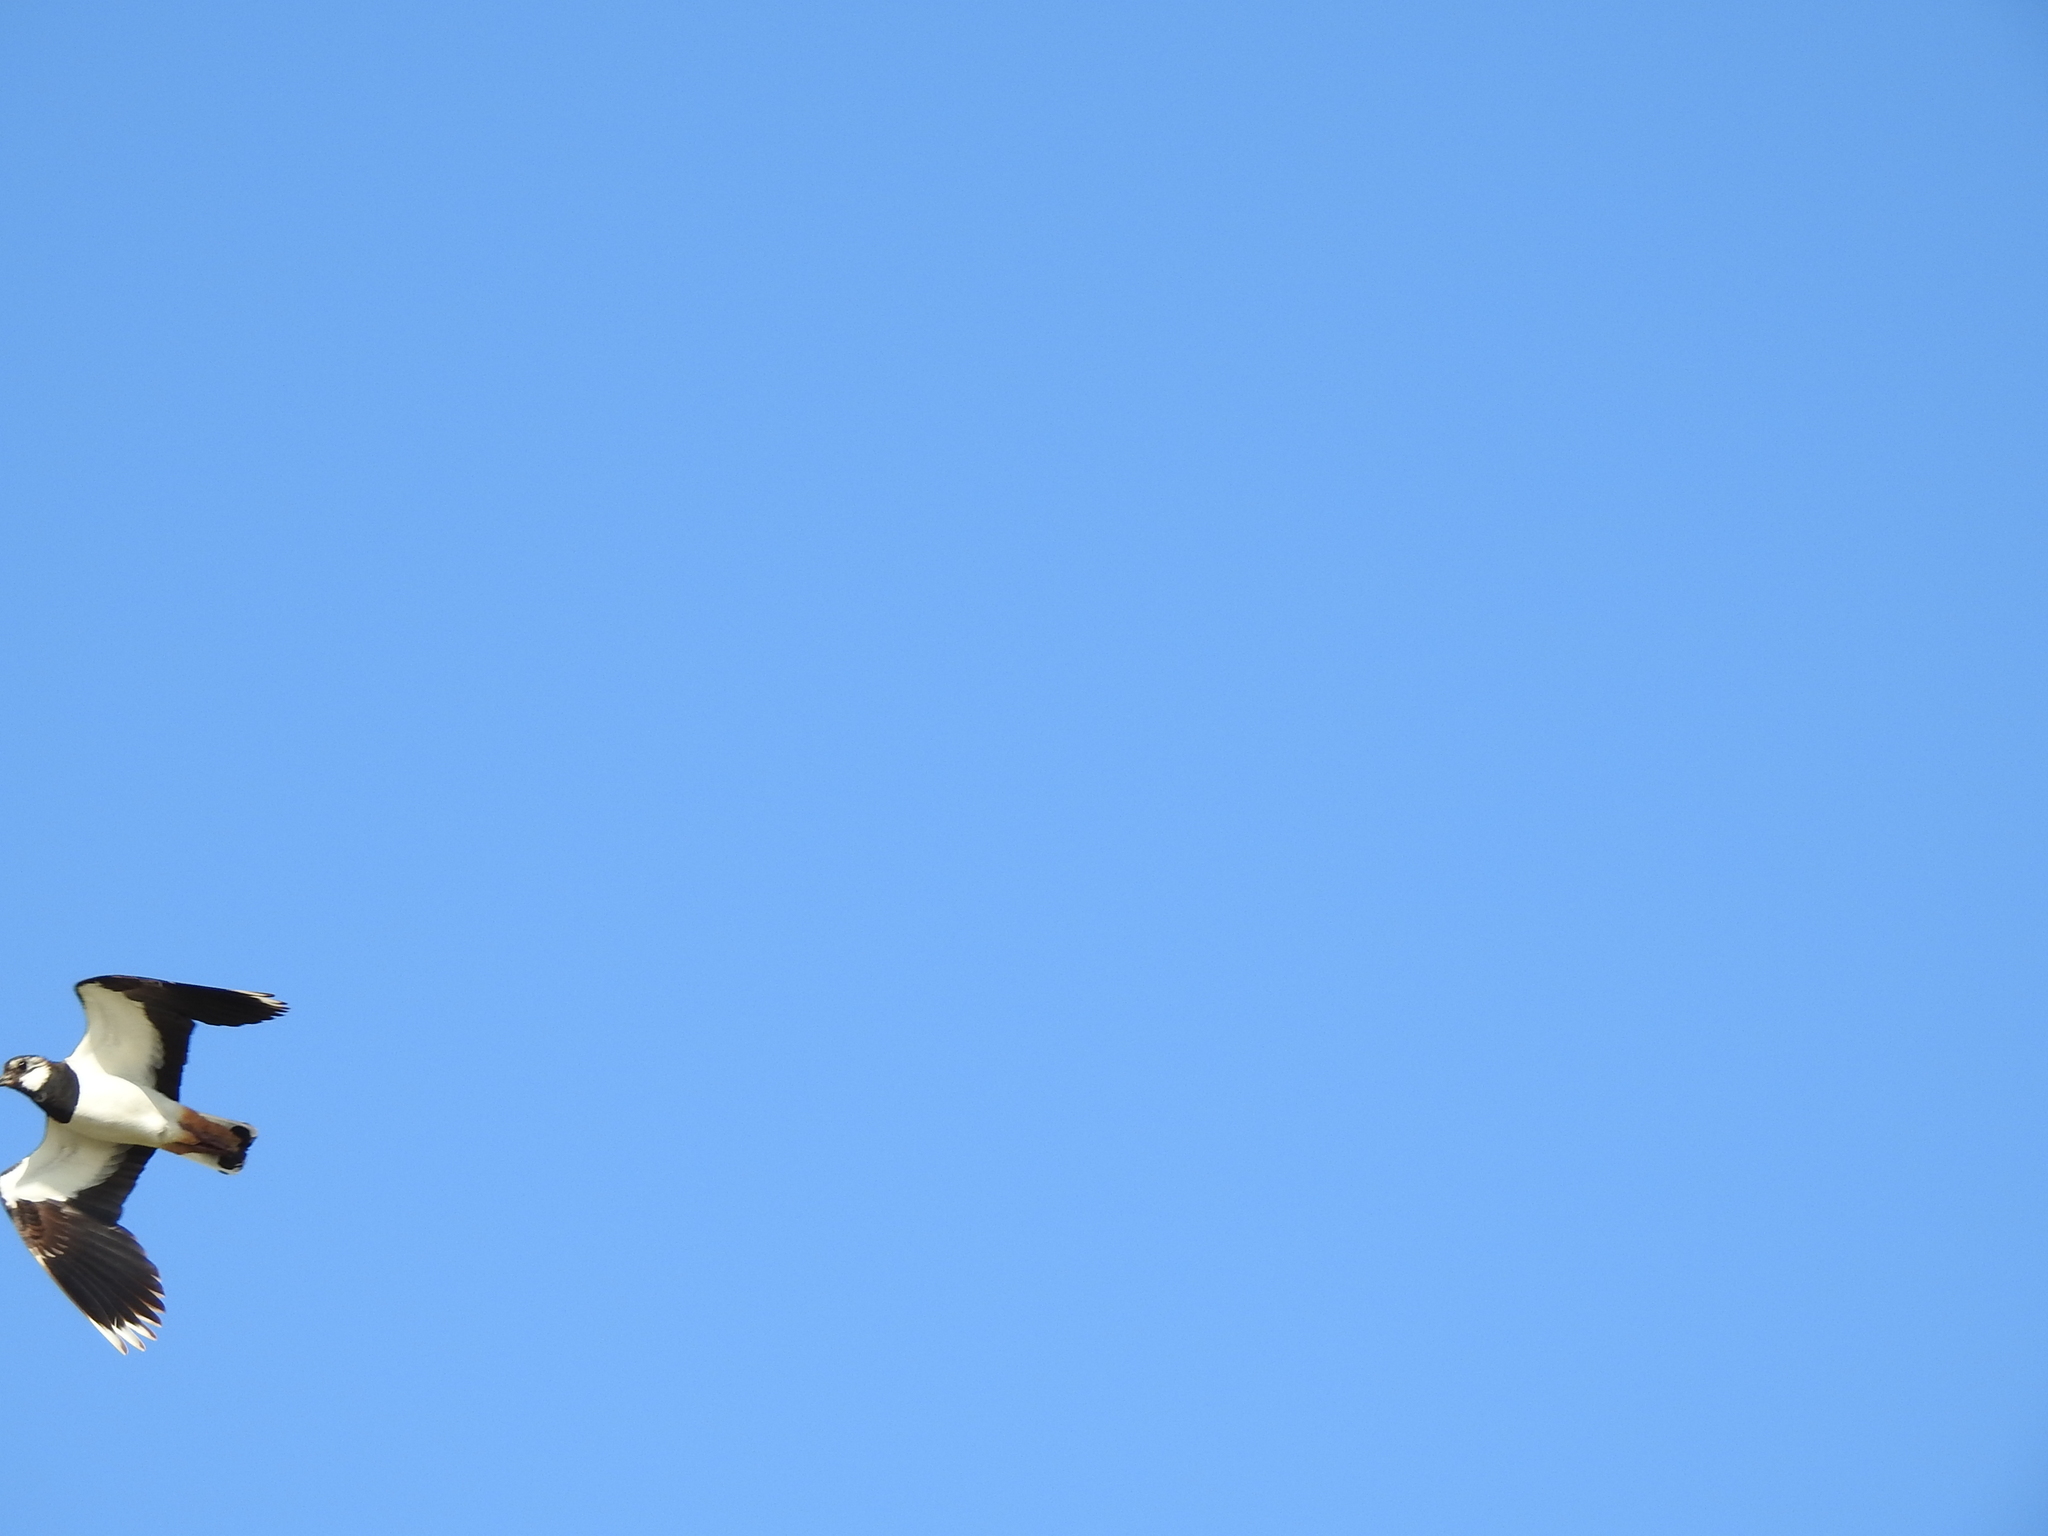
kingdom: Animalia
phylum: Chordata
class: Aves
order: Charadriiformes
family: Charadriidae
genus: Vanellus
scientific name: Vanellus vanellus
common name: Northern lapwing
